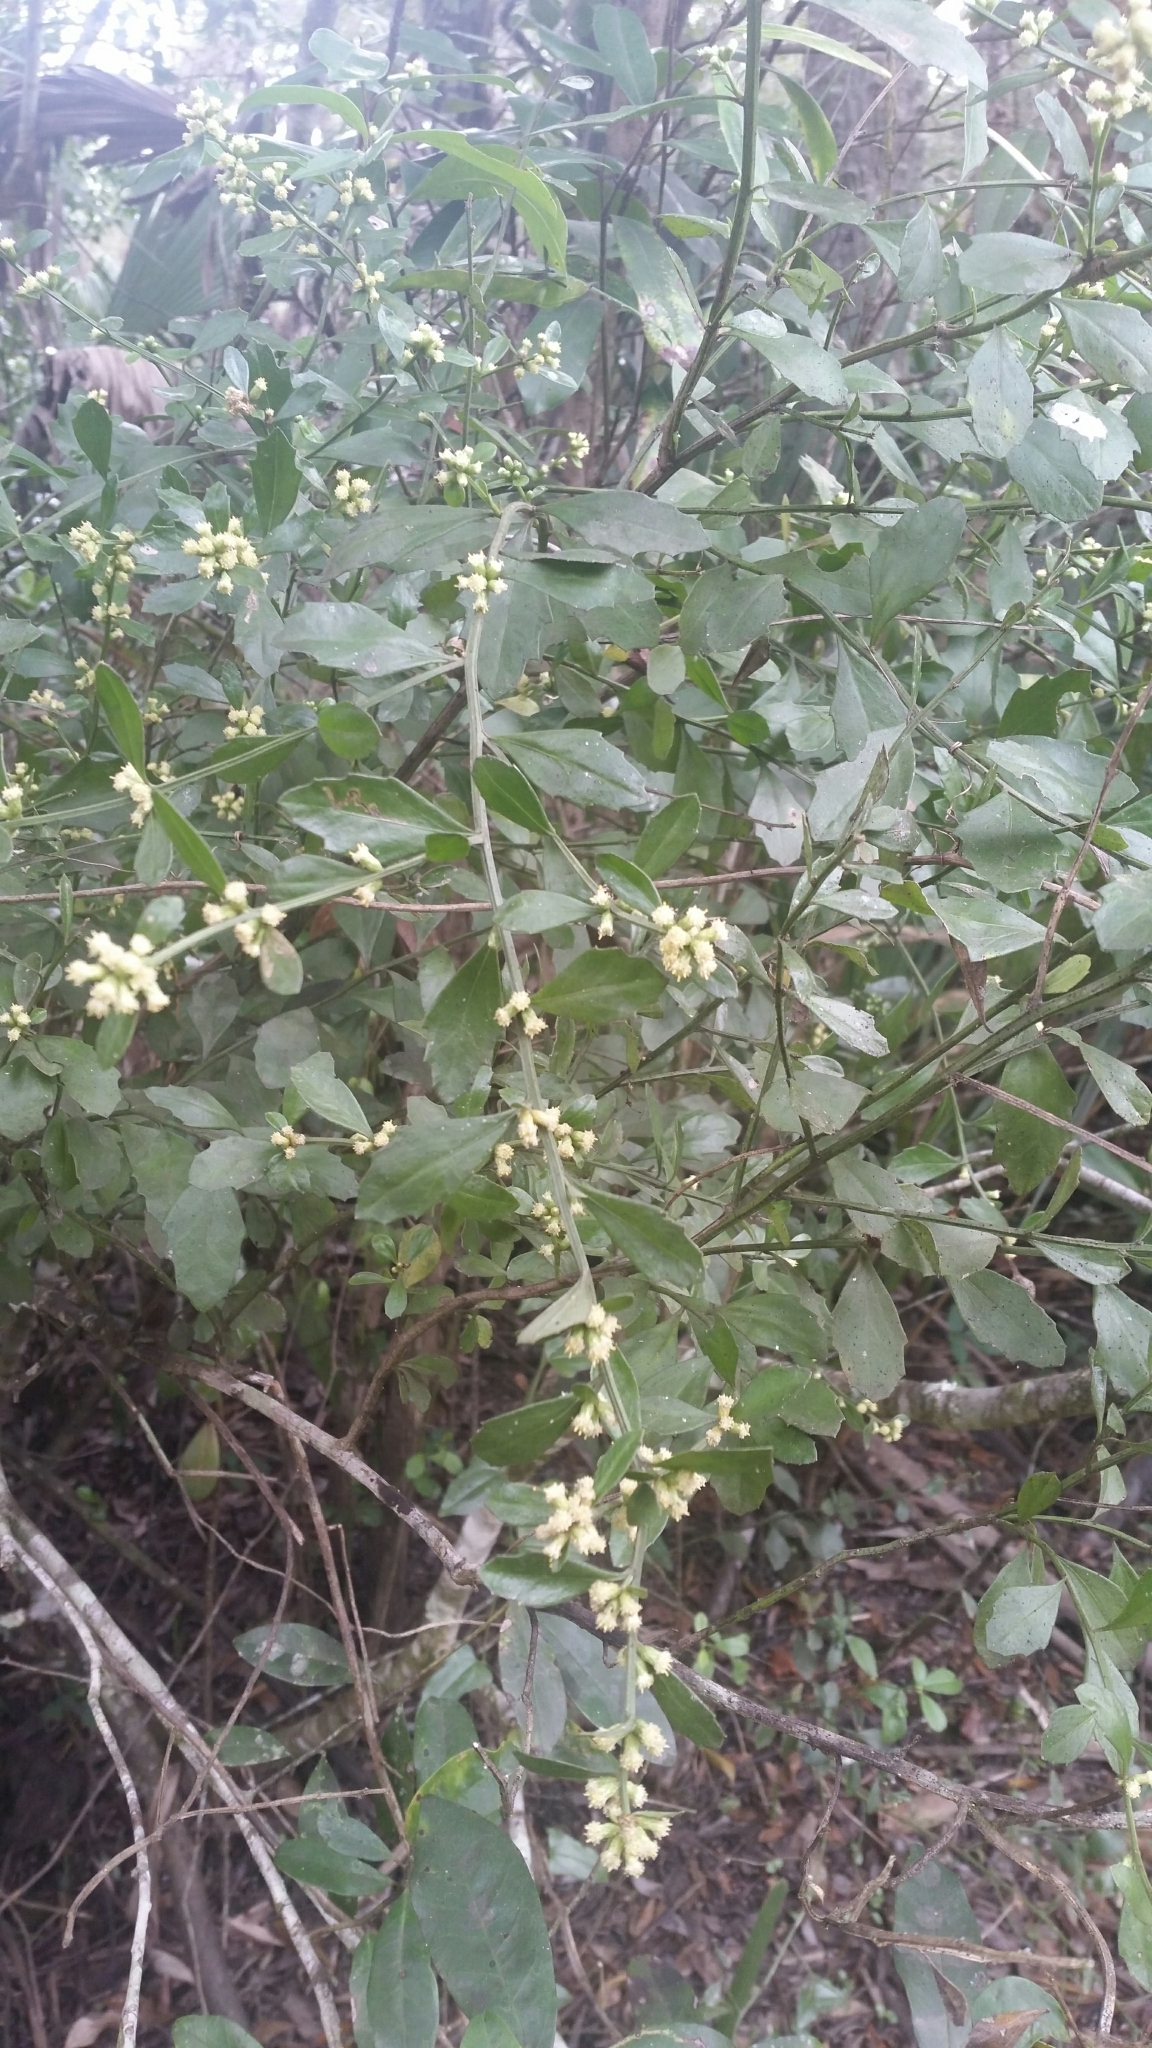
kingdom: Plantae
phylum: Tracheophyta
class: Magnoliopsida
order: Asterales
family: Asteraceae
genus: Baccharis
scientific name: Baccharis glomeruliflora
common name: Silverling groundsel bush
